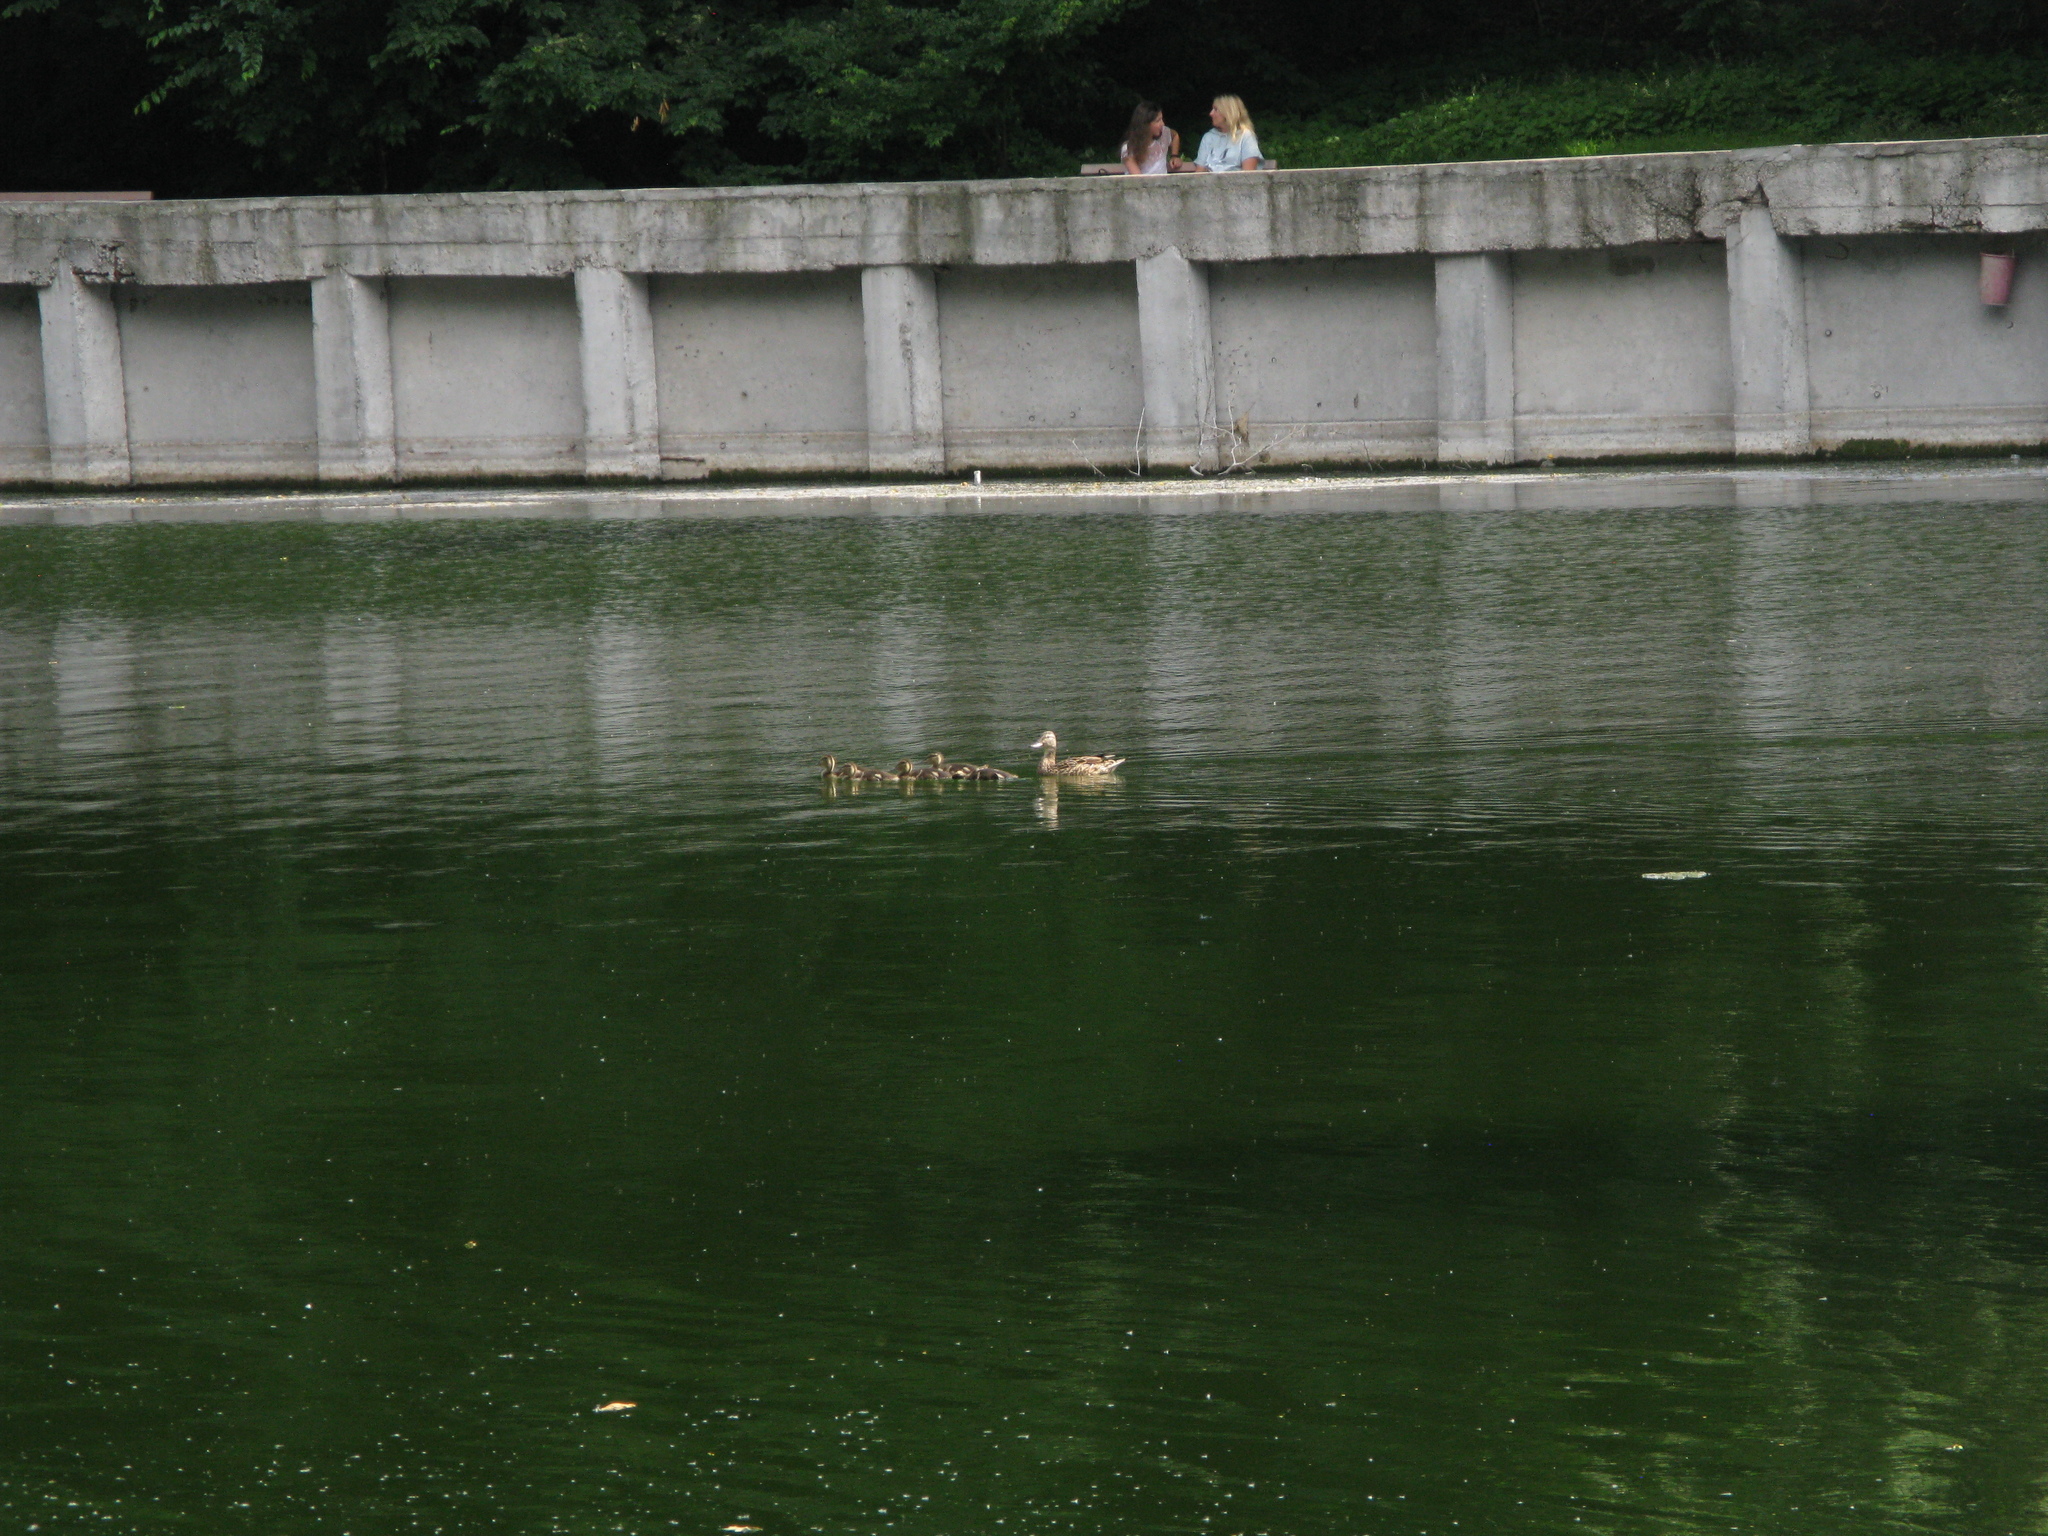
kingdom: Animalia
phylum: Chordata
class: Aves
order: Anseriformes
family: Anatidae
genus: Anas
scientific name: Anas platyrhynchos
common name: Mallard
